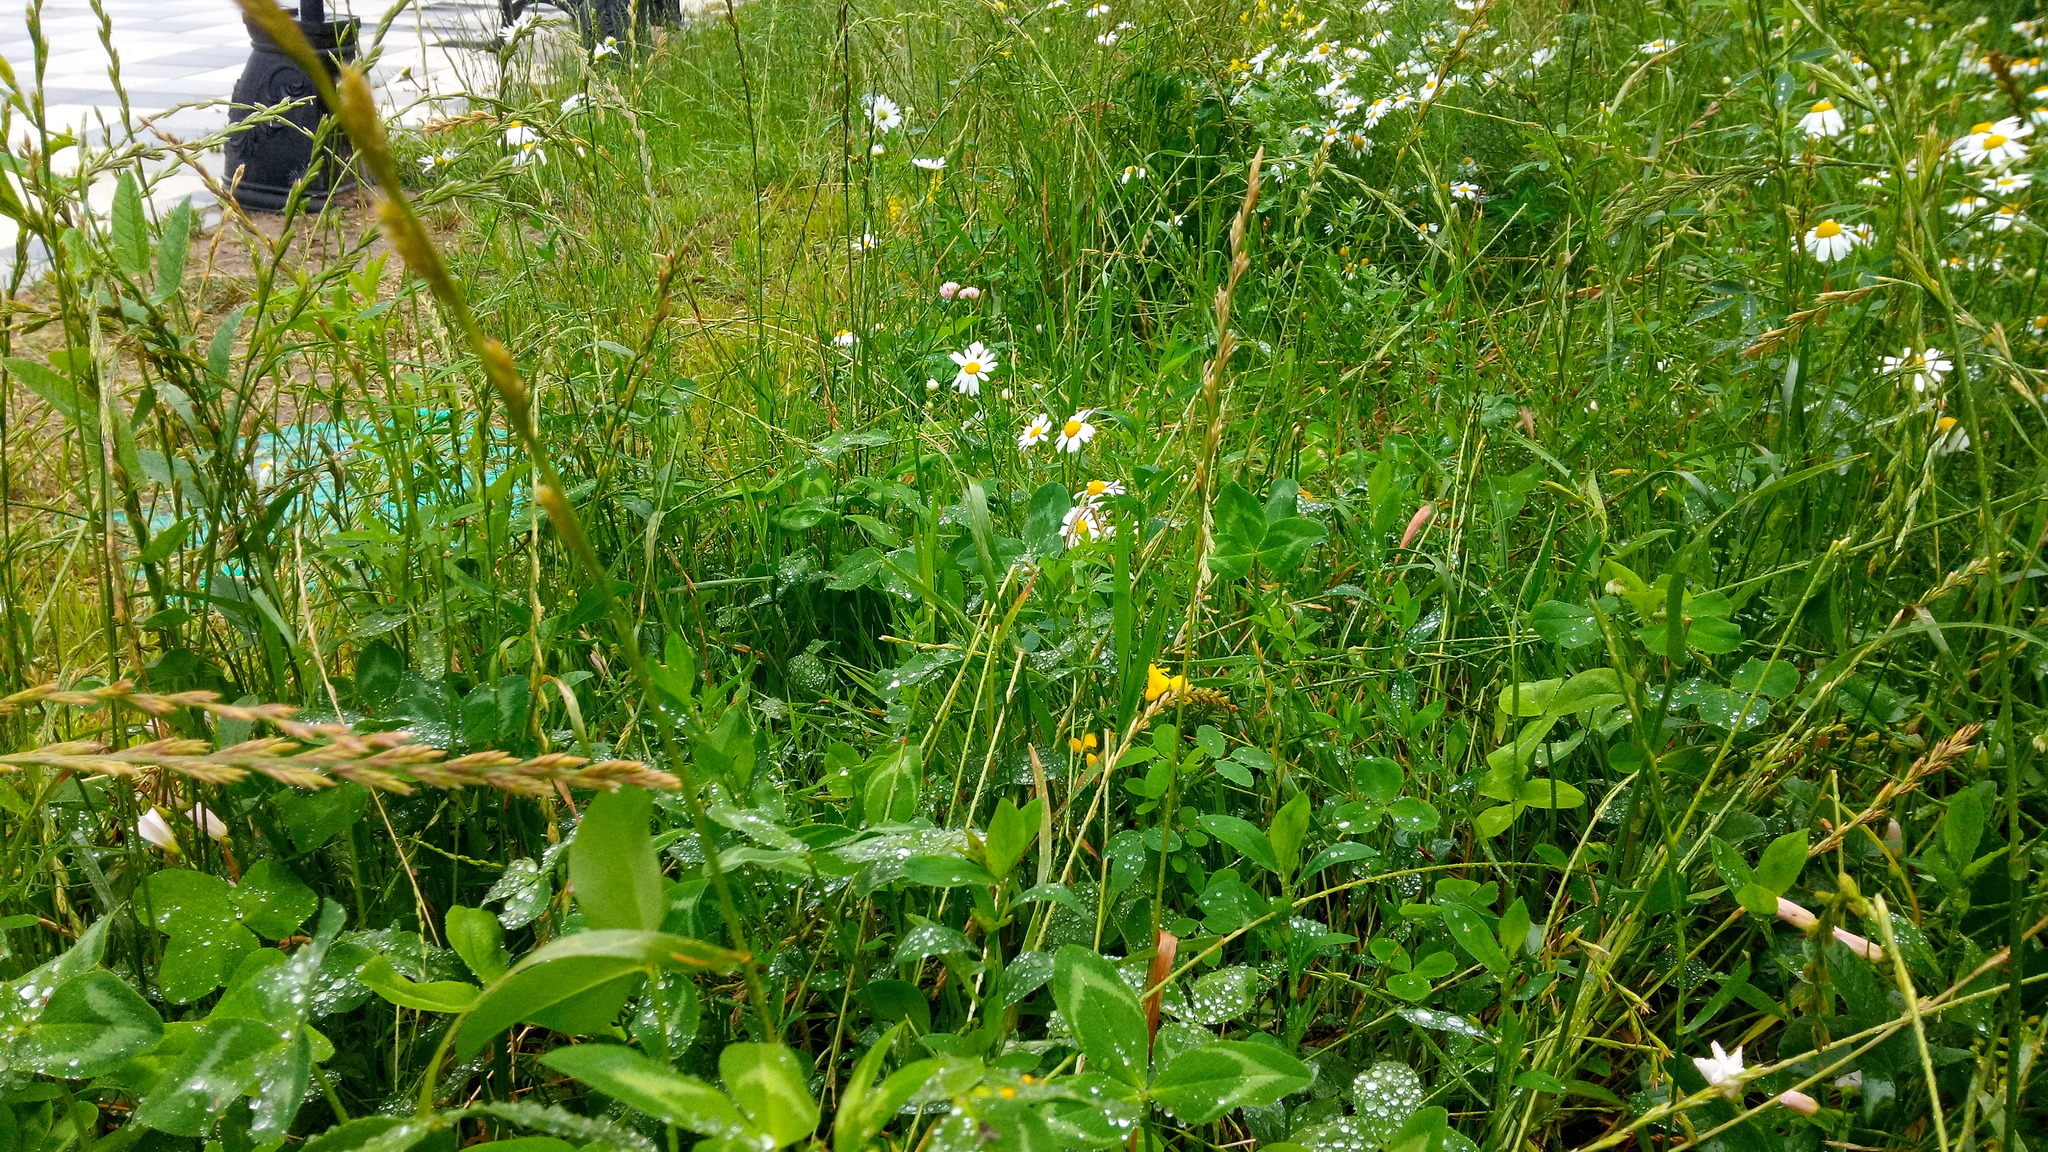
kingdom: Plantae
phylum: Tracheophyta
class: Magnoliopsida
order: Asterales
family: Asteraceae
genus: Tripleurospermum
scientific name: Tripleurospermum inodorum
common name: Scentless mayweed
